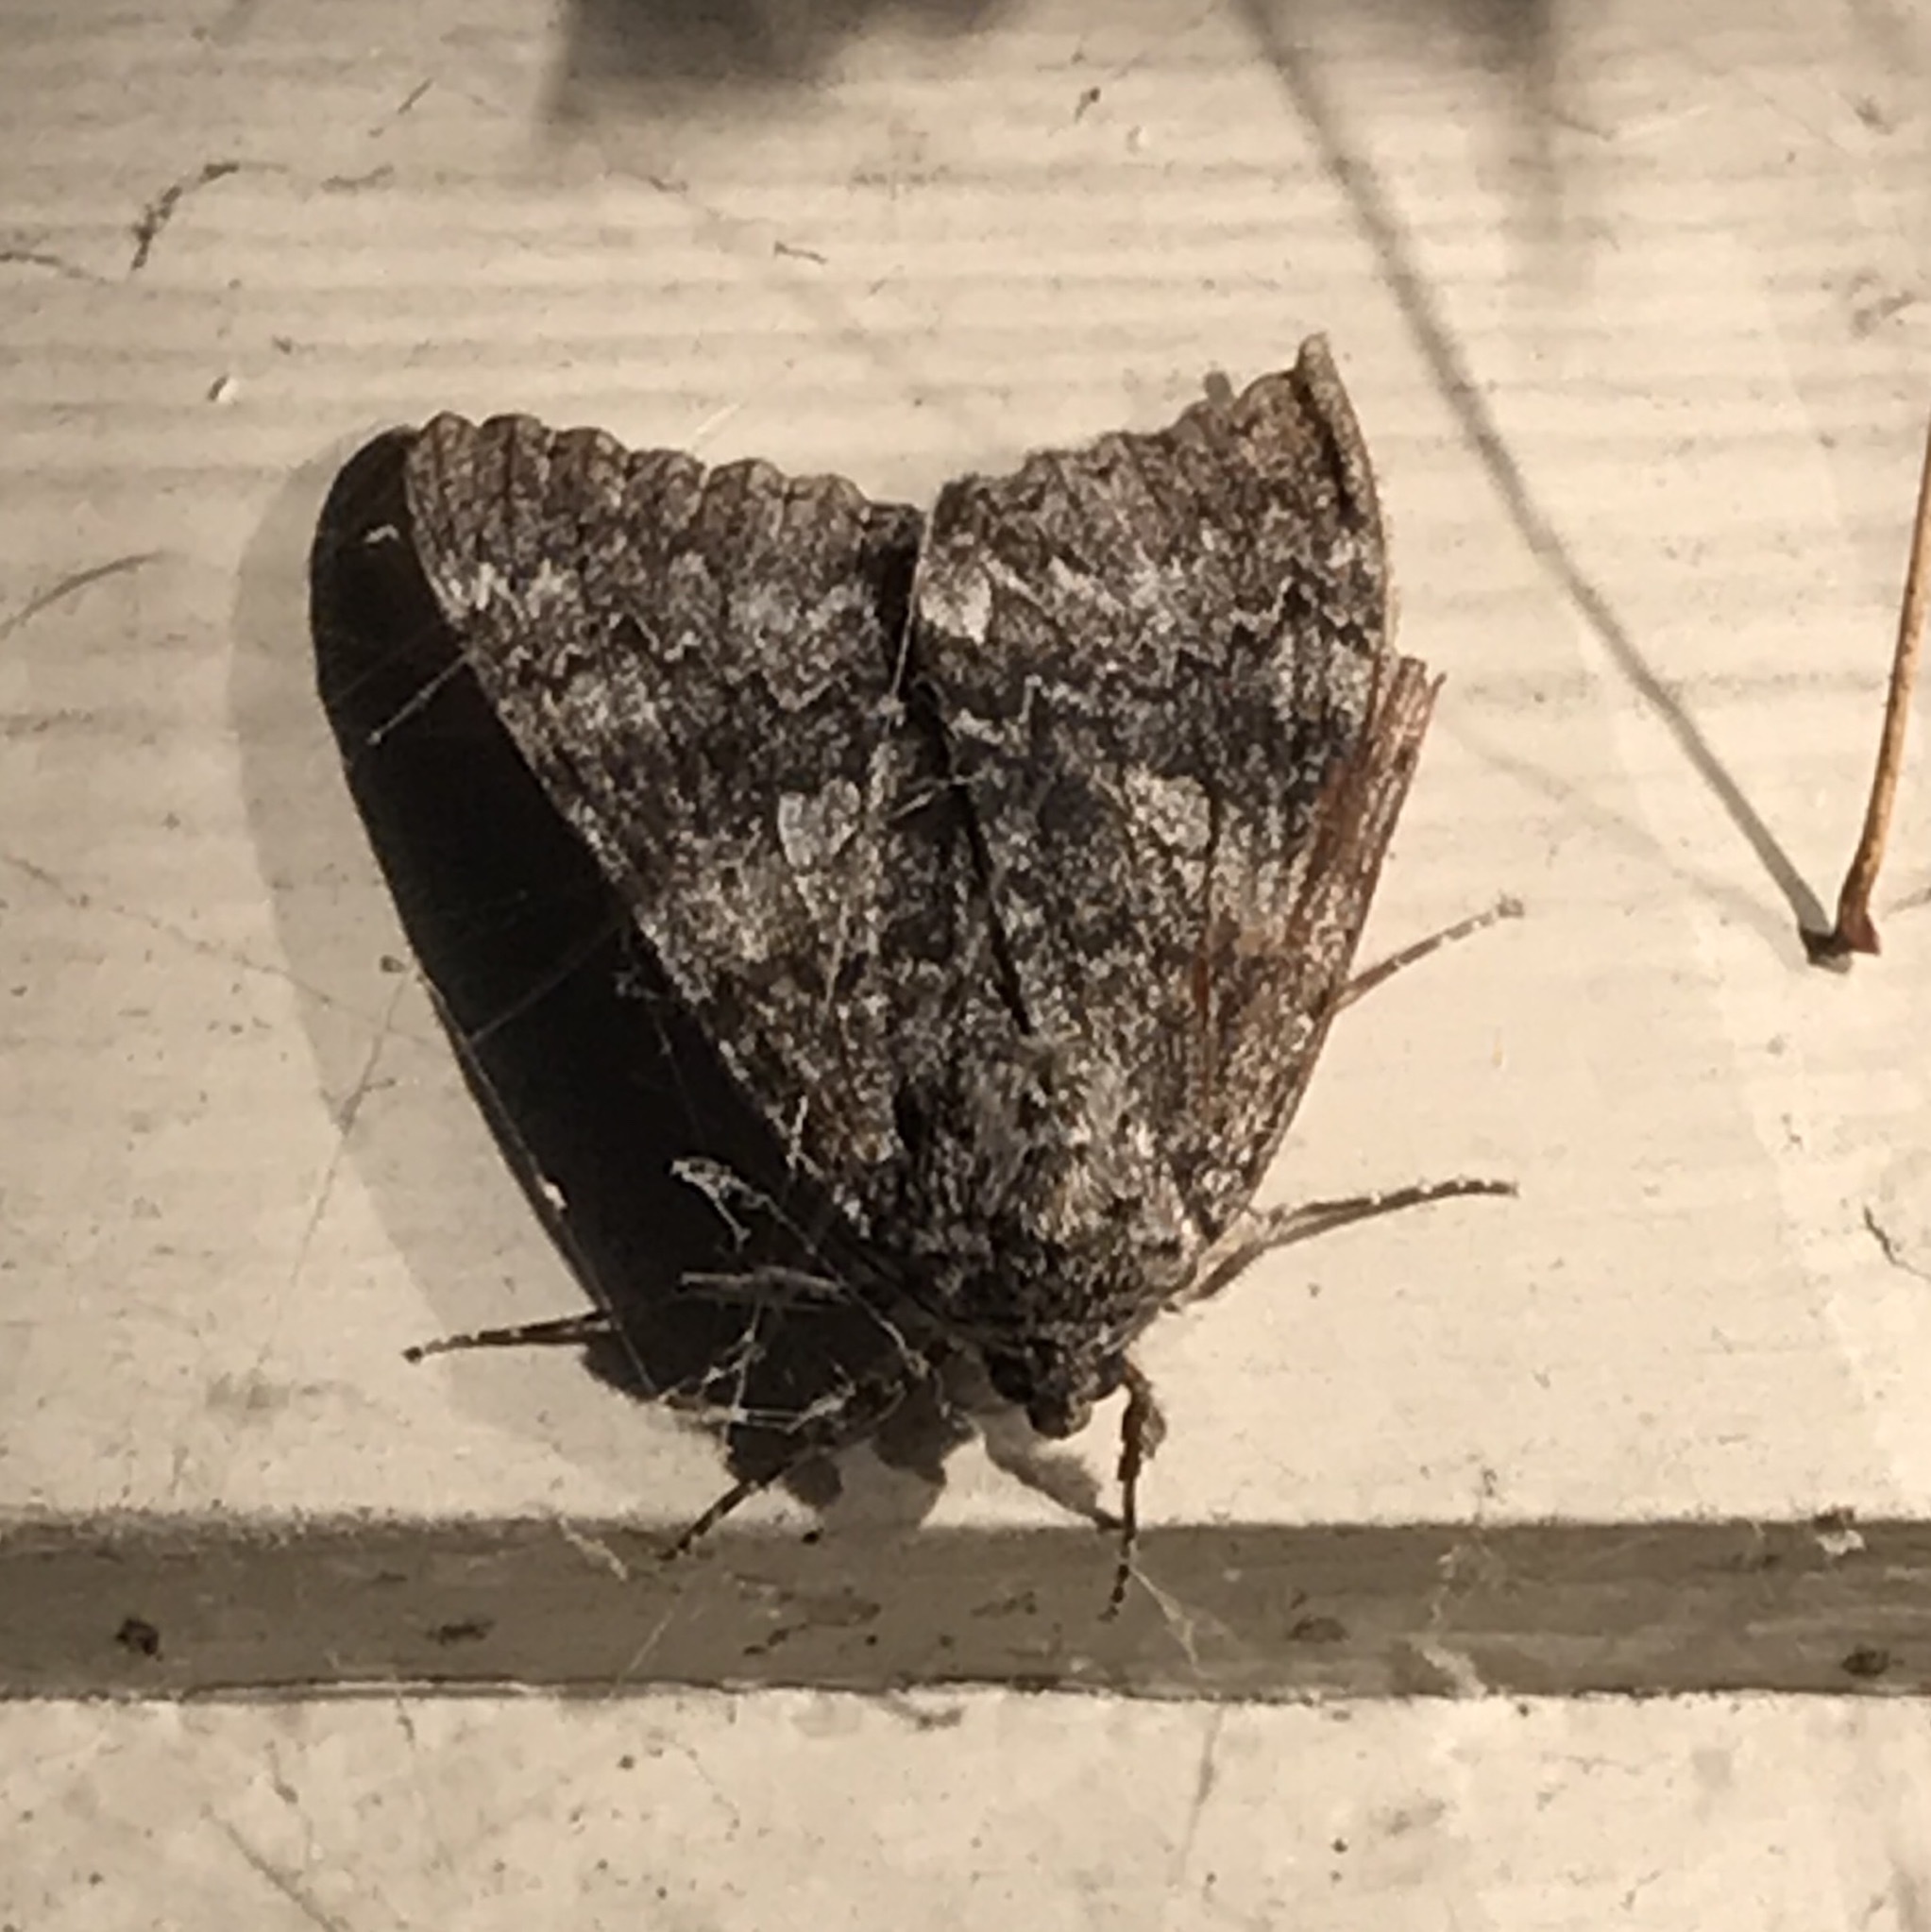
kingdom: Animalia
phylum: Arthropoda
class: Insecta
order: Lepidoptera
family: Erebidae
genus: Catocala
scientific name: Catocala unijuga
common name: Once-married underwing
